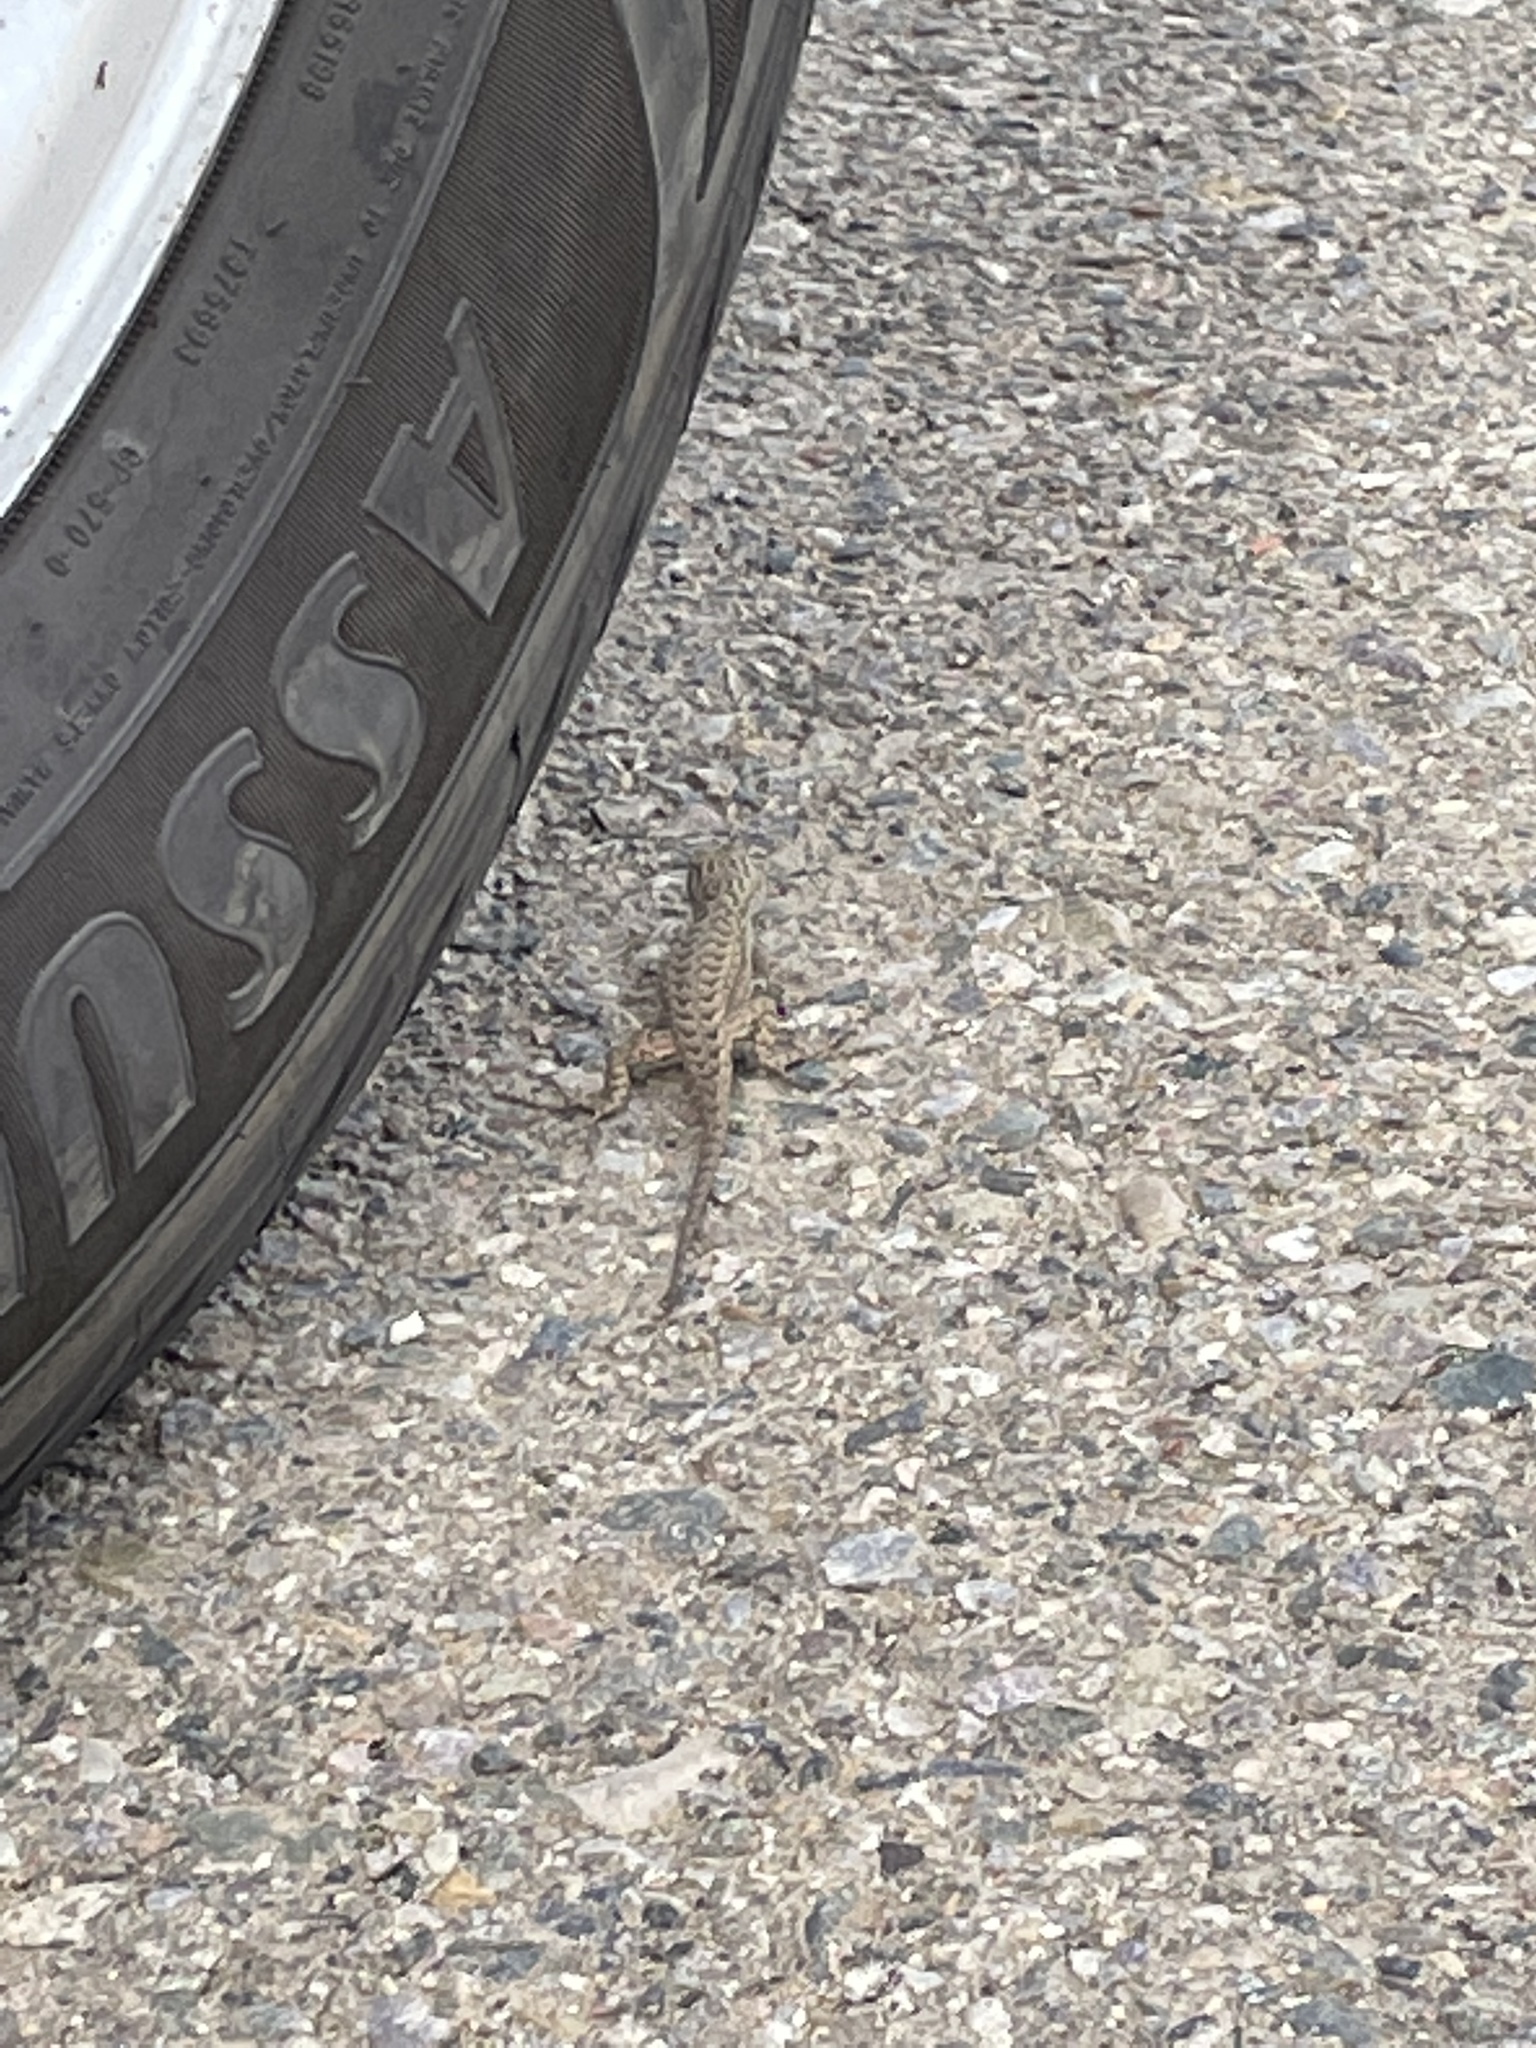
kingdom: Animalia
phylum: Chordata
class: Squamata
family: Phrynosomatidae
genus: Sceloporus
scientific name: Sceloporus tristichus
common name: Plateau fence lizard
